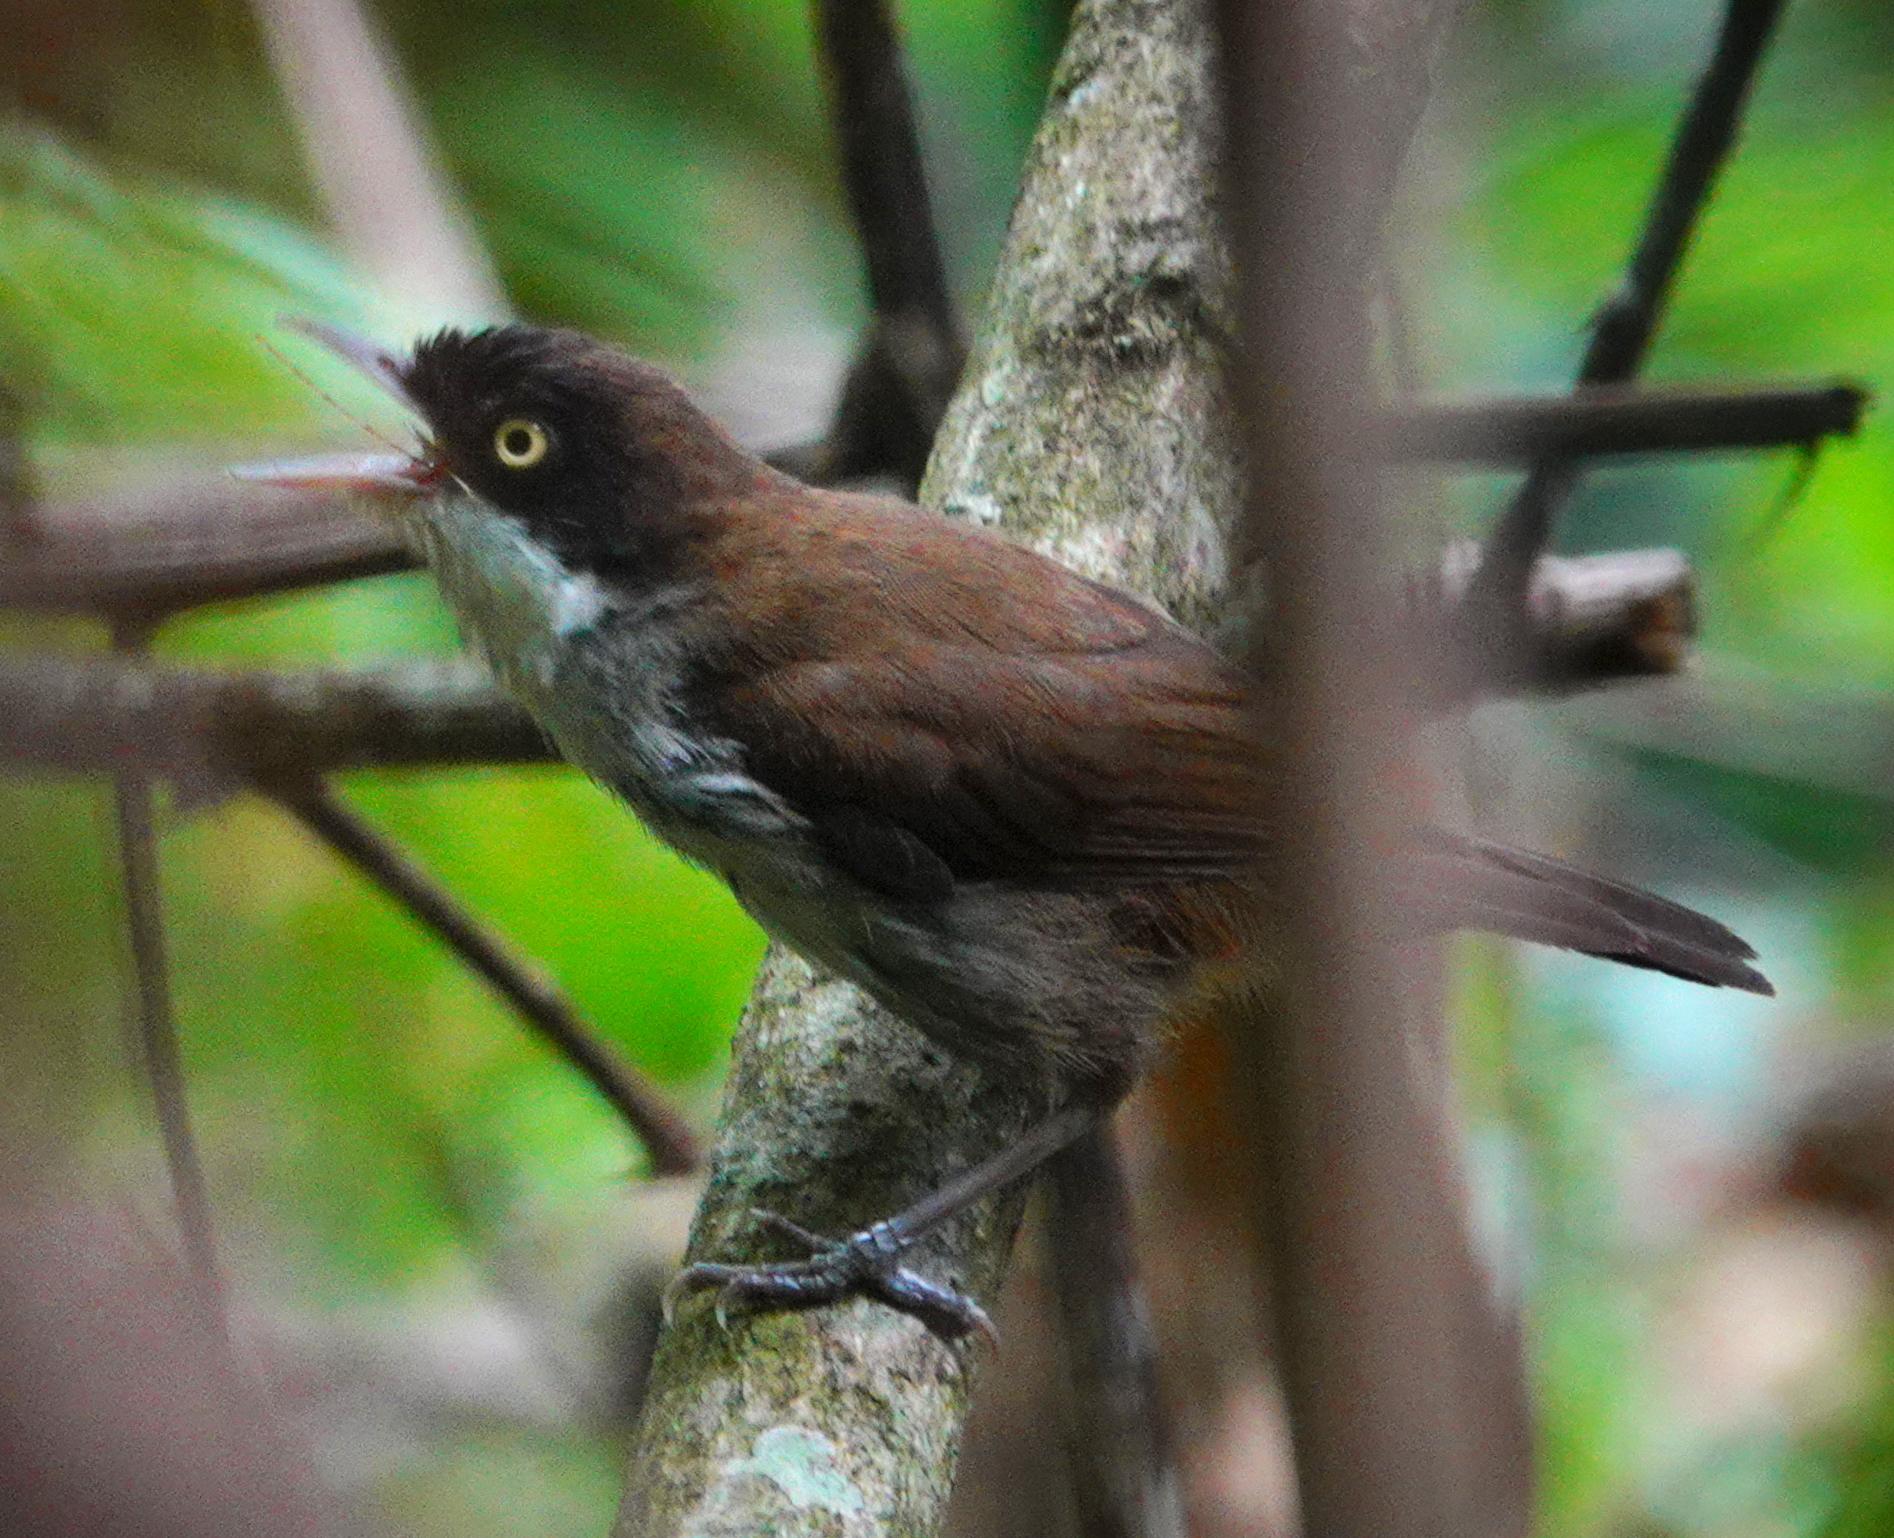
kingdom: Animalia
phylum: Chordata
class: Aves
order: Passeriformes
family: Timaliidae
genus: Rhopocichla
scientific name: Rhopocichla atriceps
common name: Dark-fronted babbler
